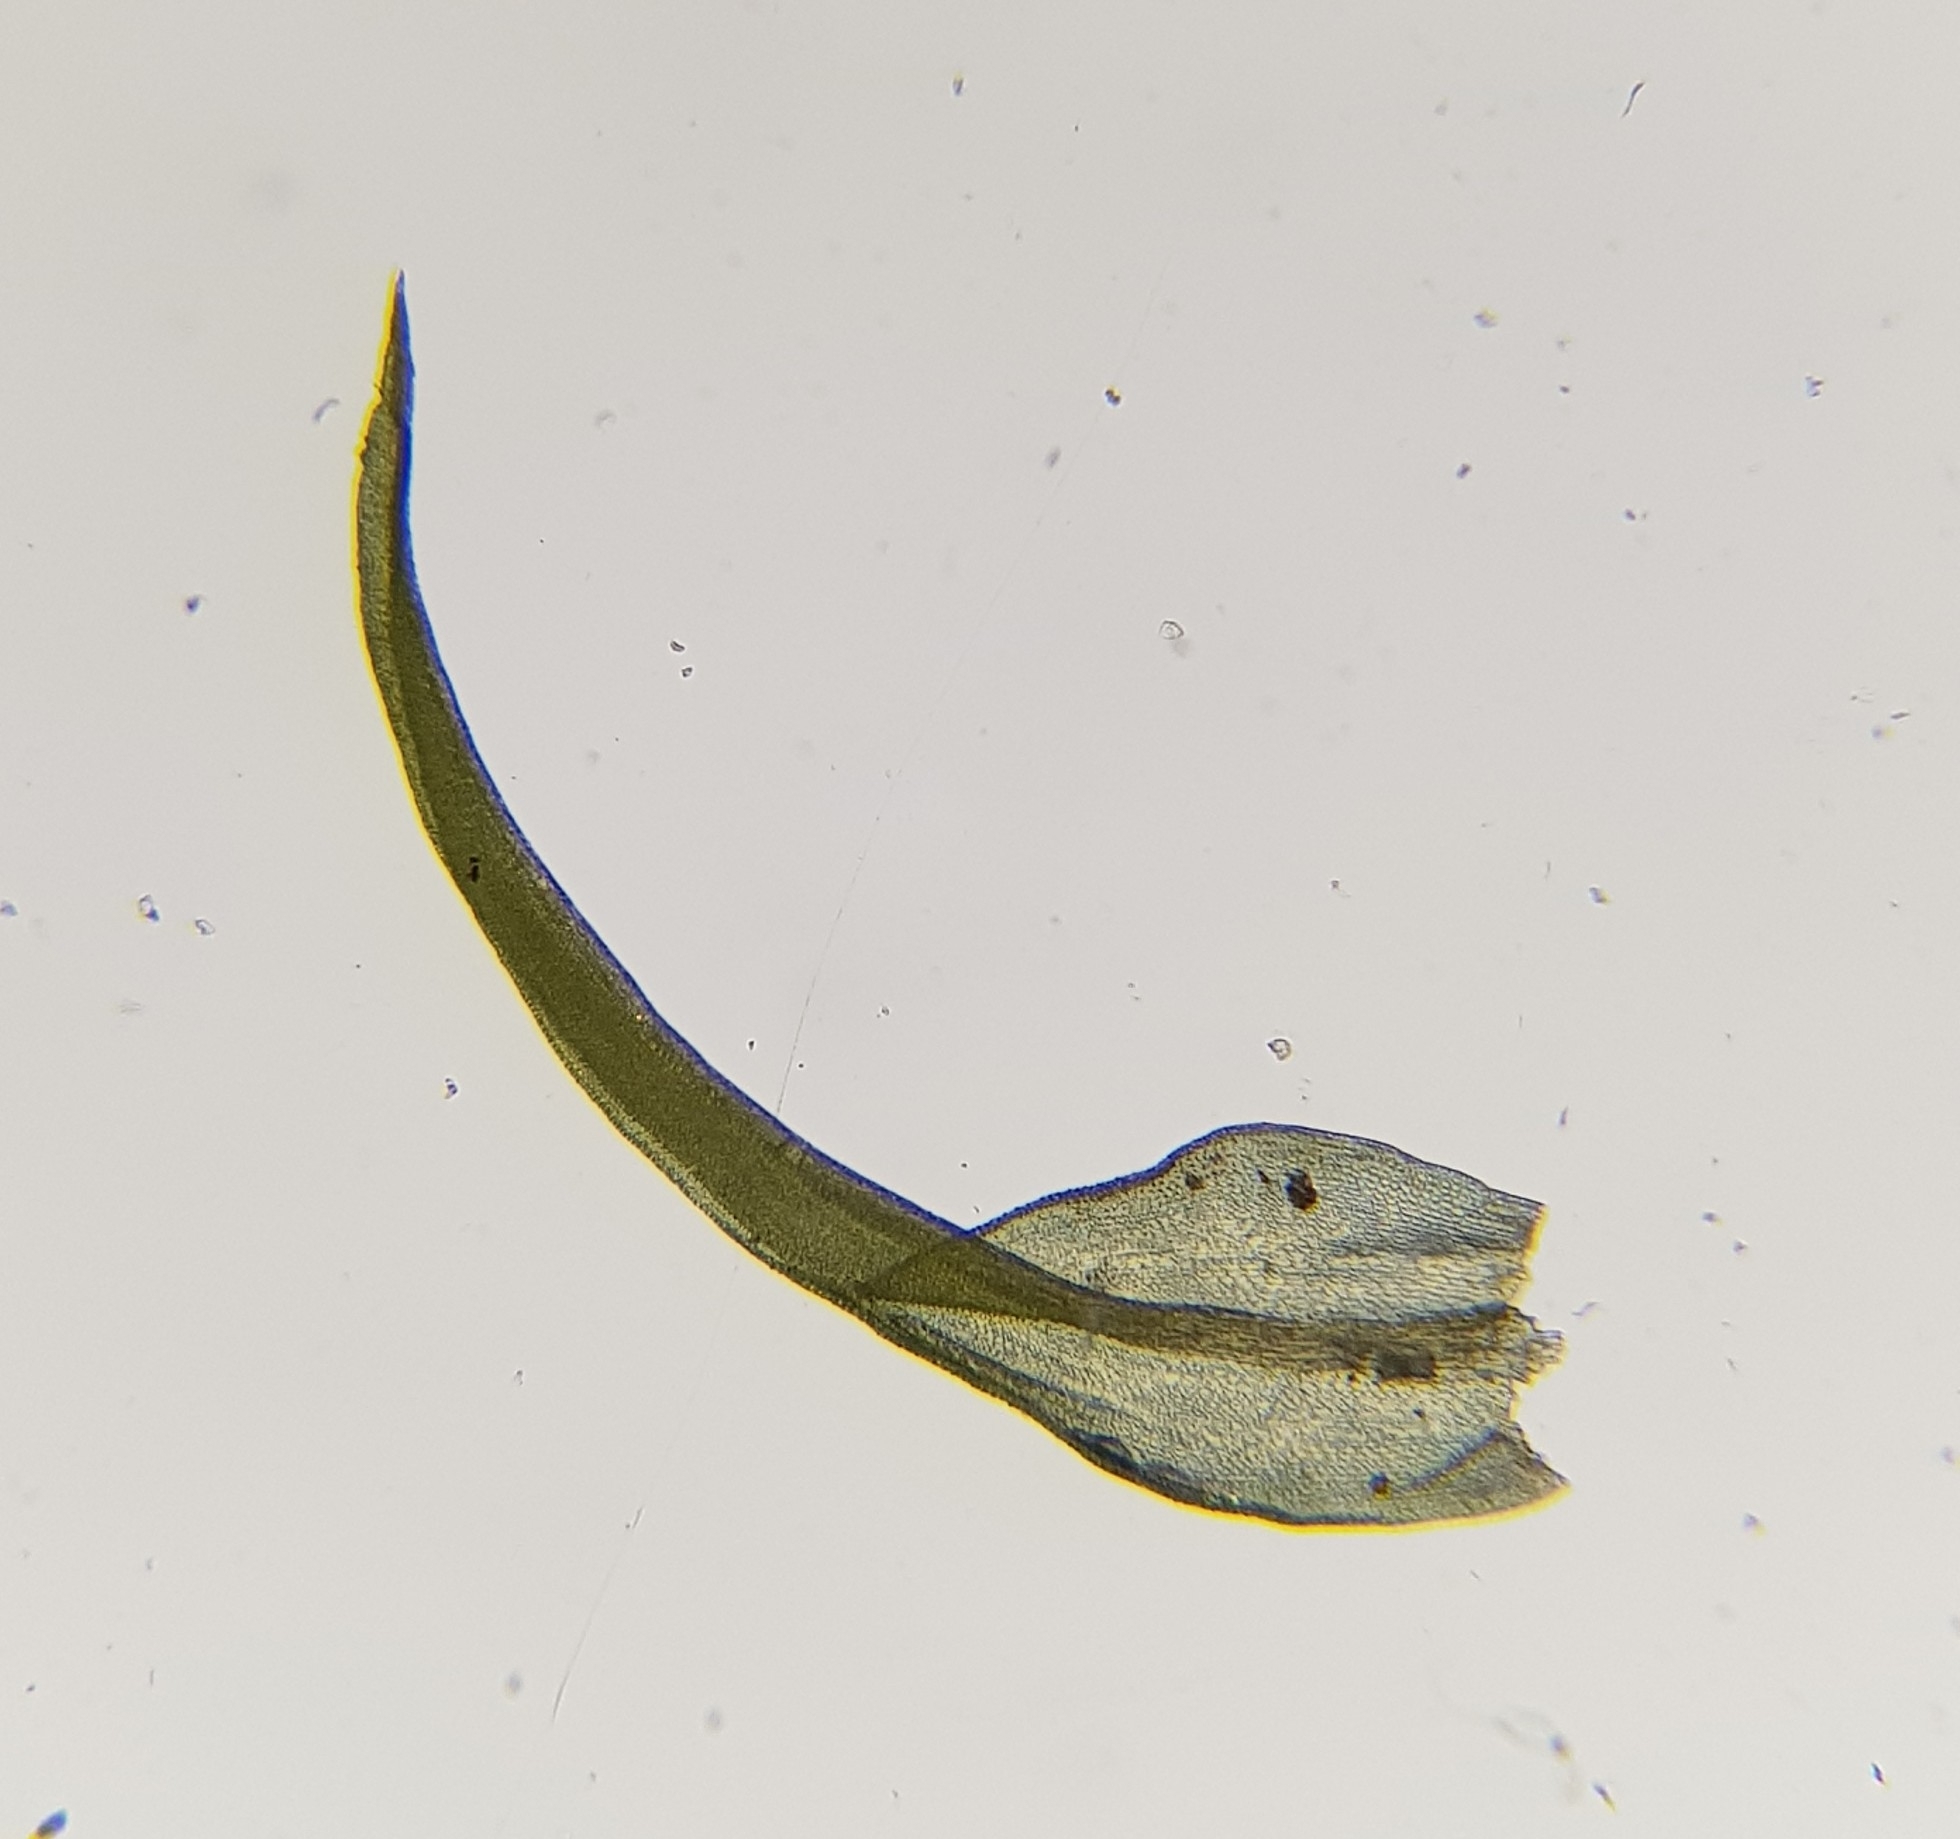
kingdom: Plantae
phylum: Bryophyta
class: Bryopsida
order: Pottiales
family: Pottiaceae
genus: Vinealobryum
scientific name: Vinealobryum insulanum
